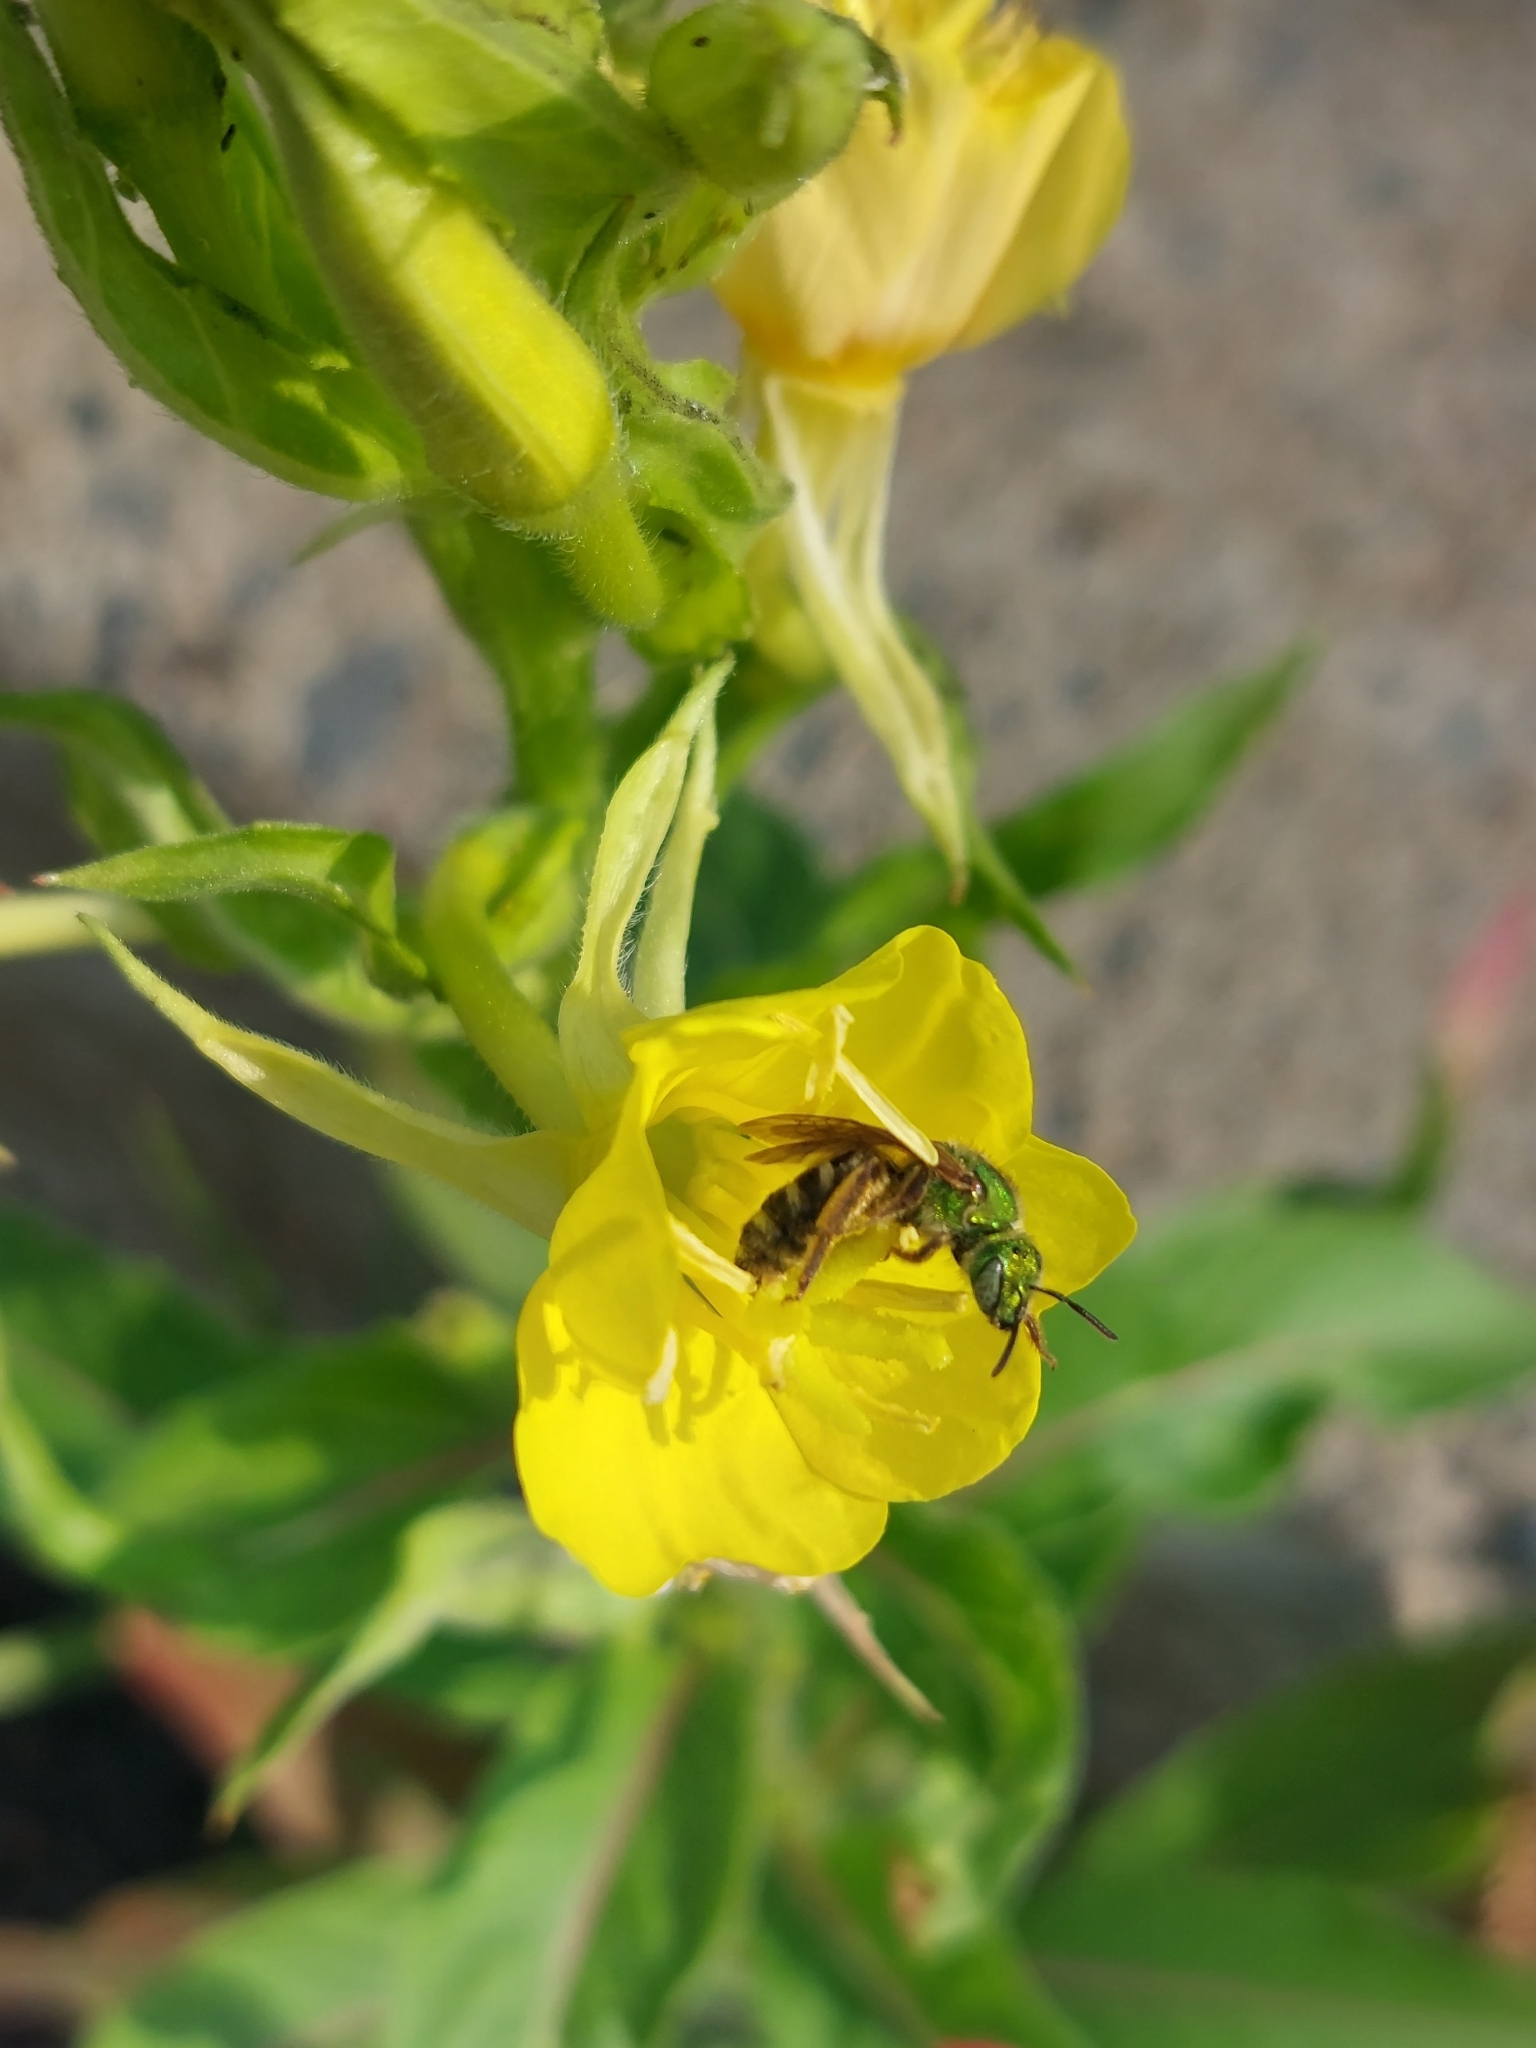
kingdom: Animalia
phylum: Arthropoda
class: Insecta
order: Hymenoptera
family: Halictidae
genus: Agapostemon
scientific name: Agapostemon virescens
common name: Bicolored striped sweat bee
